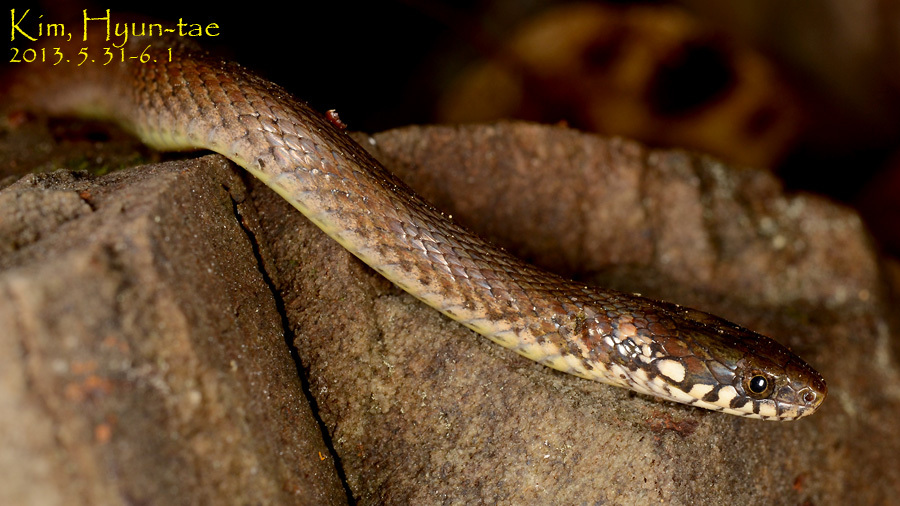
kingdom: Animalia
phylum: Chordata
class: Squamata
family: Colubridae
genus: Hebius
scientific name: Hebius vibakari
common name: Japanese keelback
